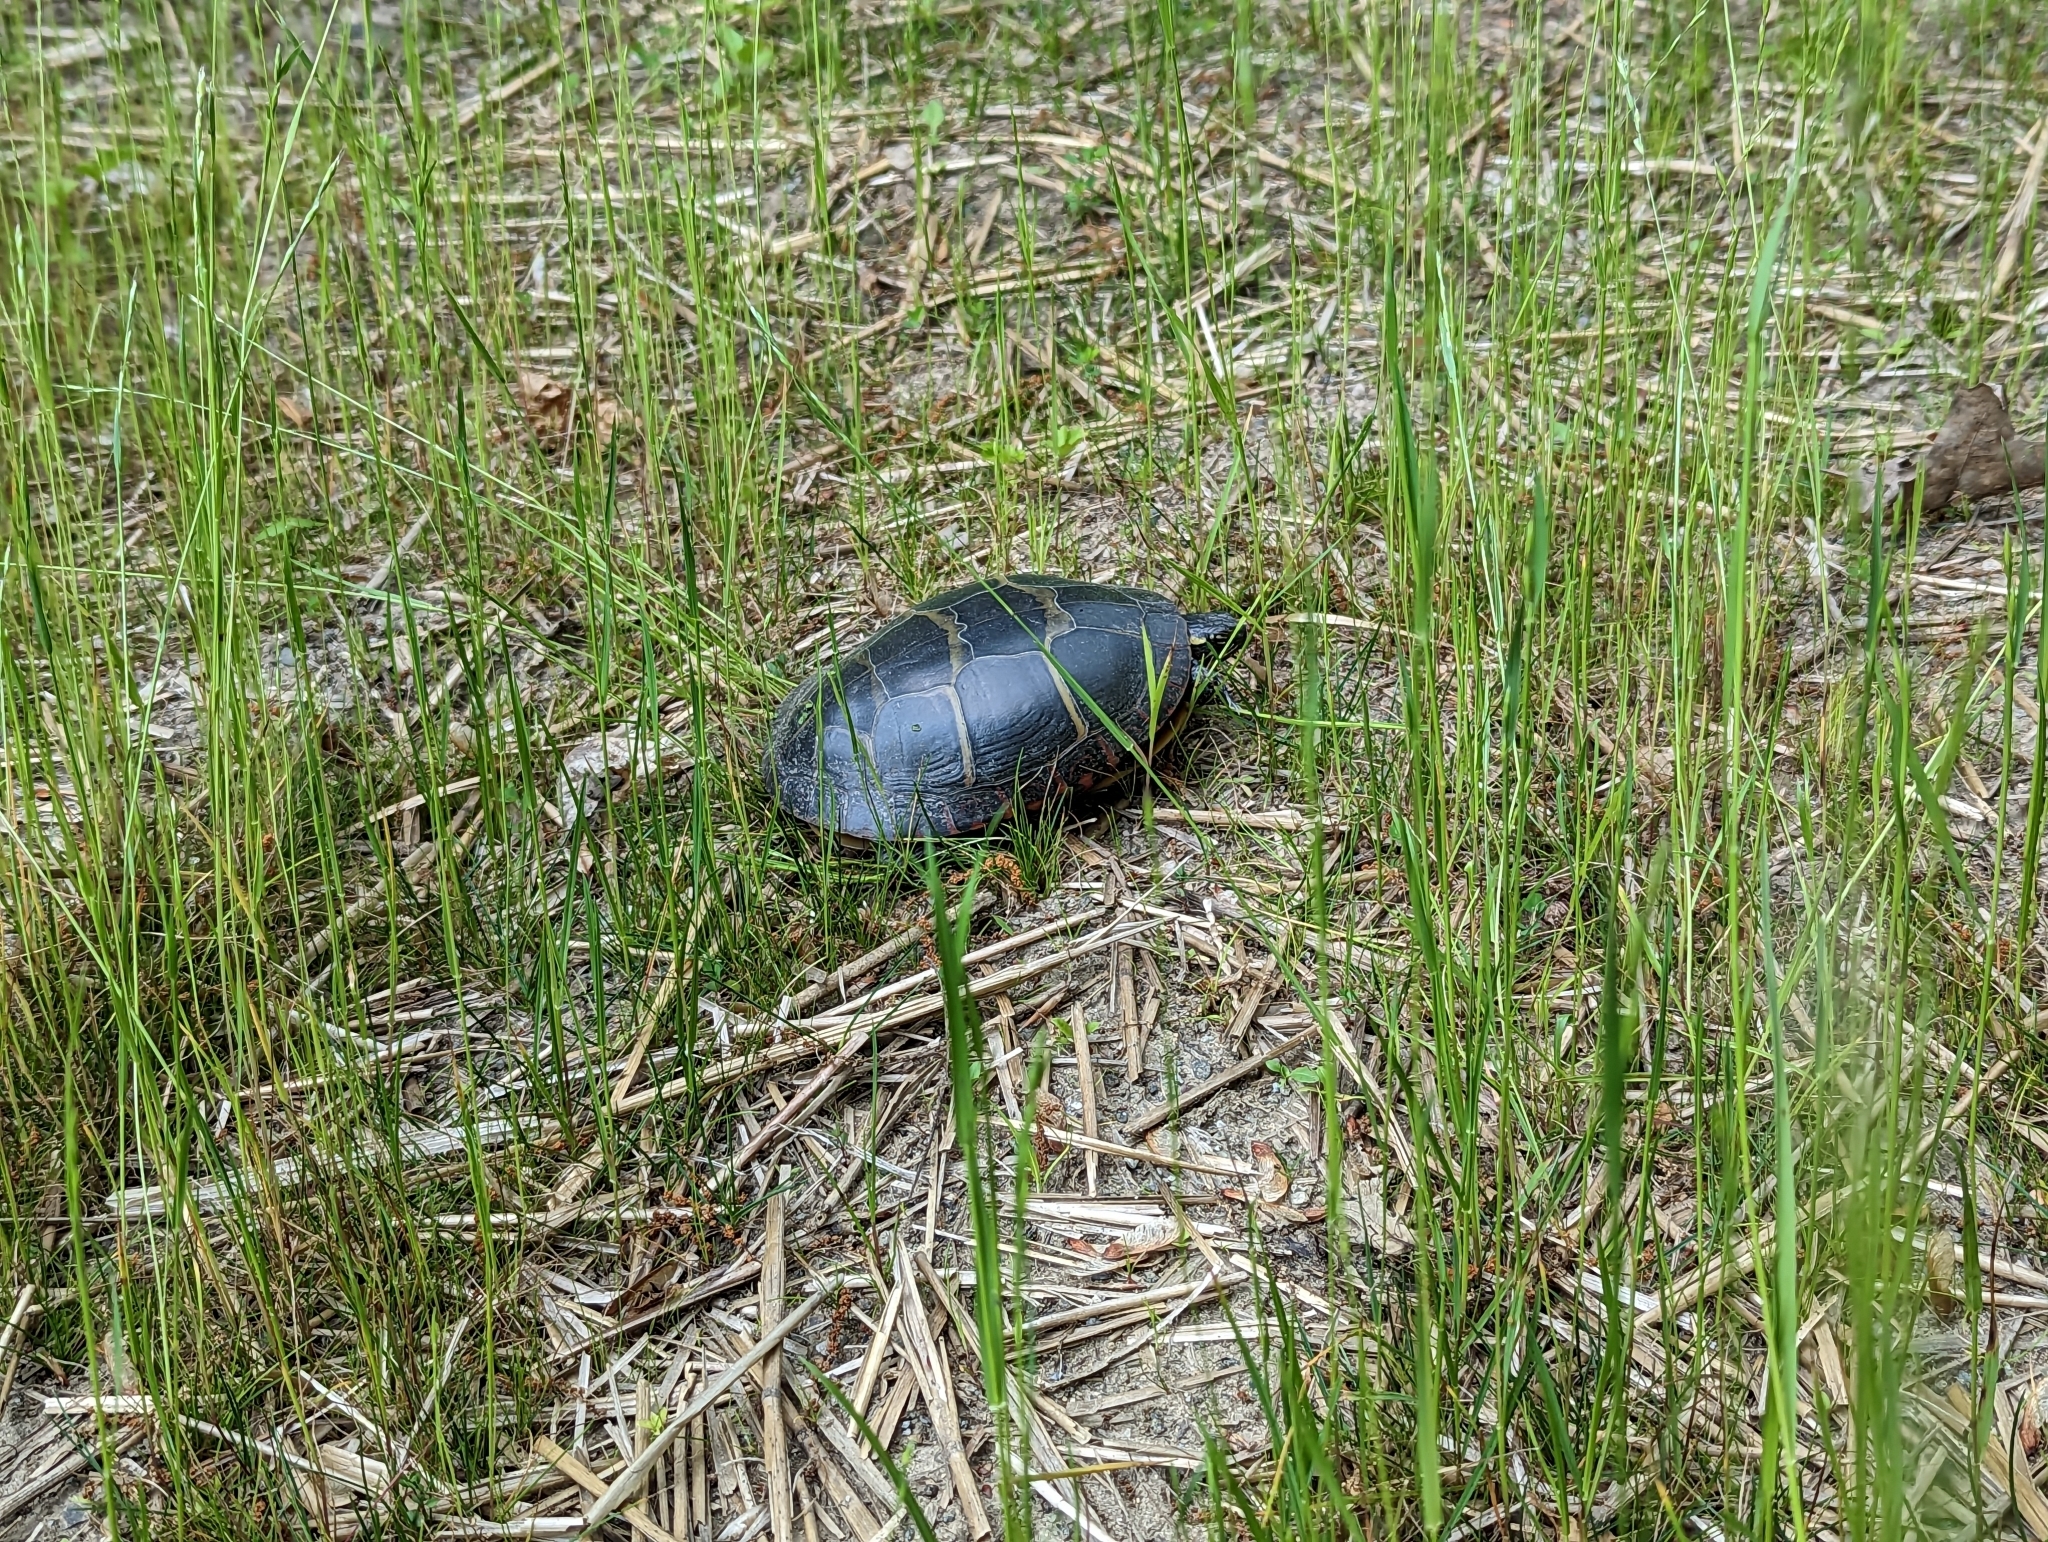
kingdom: Animalia
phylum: Chordata
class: Testudines
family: Emydidae
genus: Chrysemys
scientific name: Chrysemys picta
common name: Painted turtle
